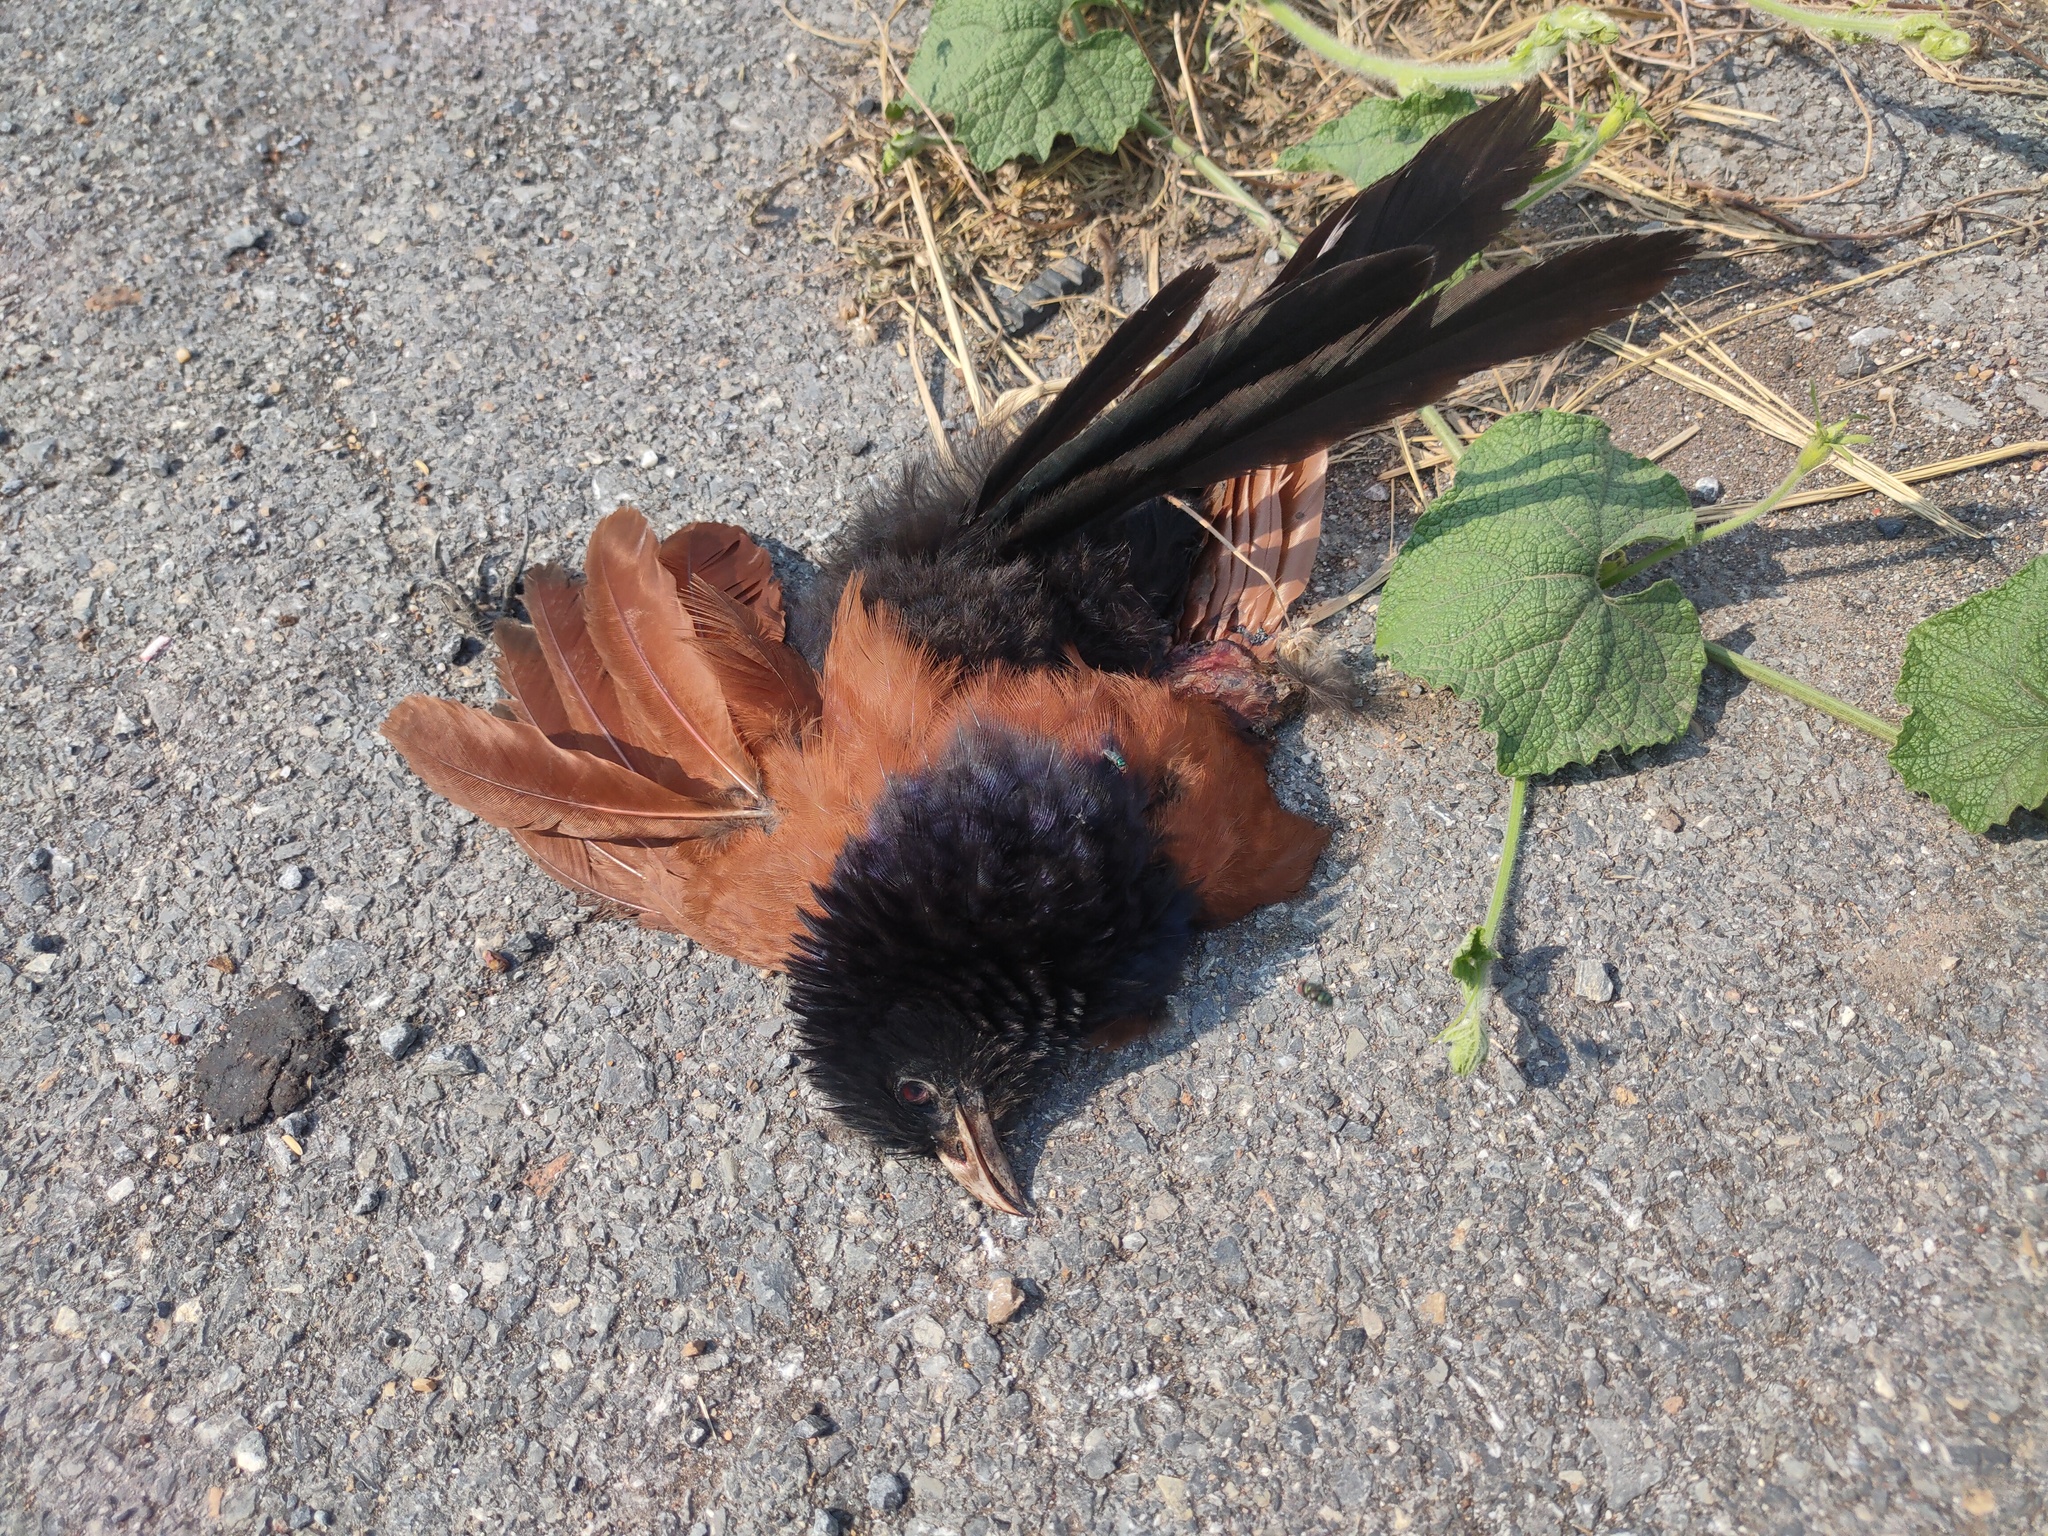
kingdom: Animalia
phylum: Chordata
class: Aves
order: Cuculiformes
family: Cuculidae
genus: Centropus
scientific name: Centropus sinensis
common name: Greater coucal
